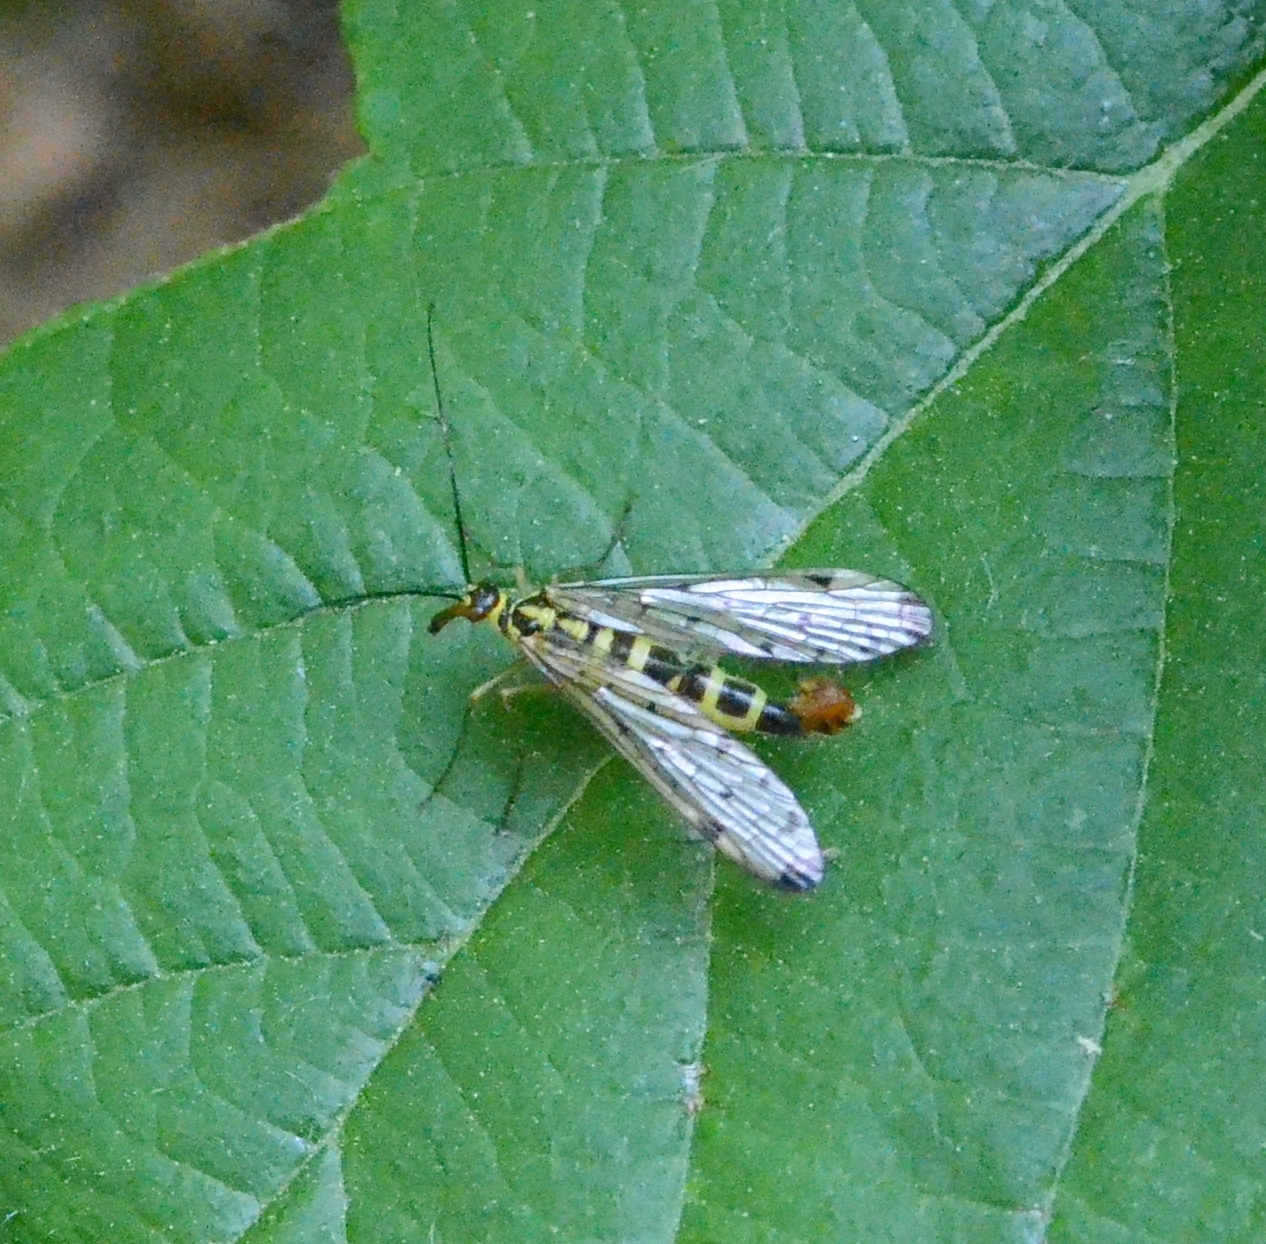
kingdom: Animalia
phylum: Arthropoda
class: Insecta
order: Mecoptera
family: Panorpidae
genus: Panorpa
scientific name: Panorpa germanica
